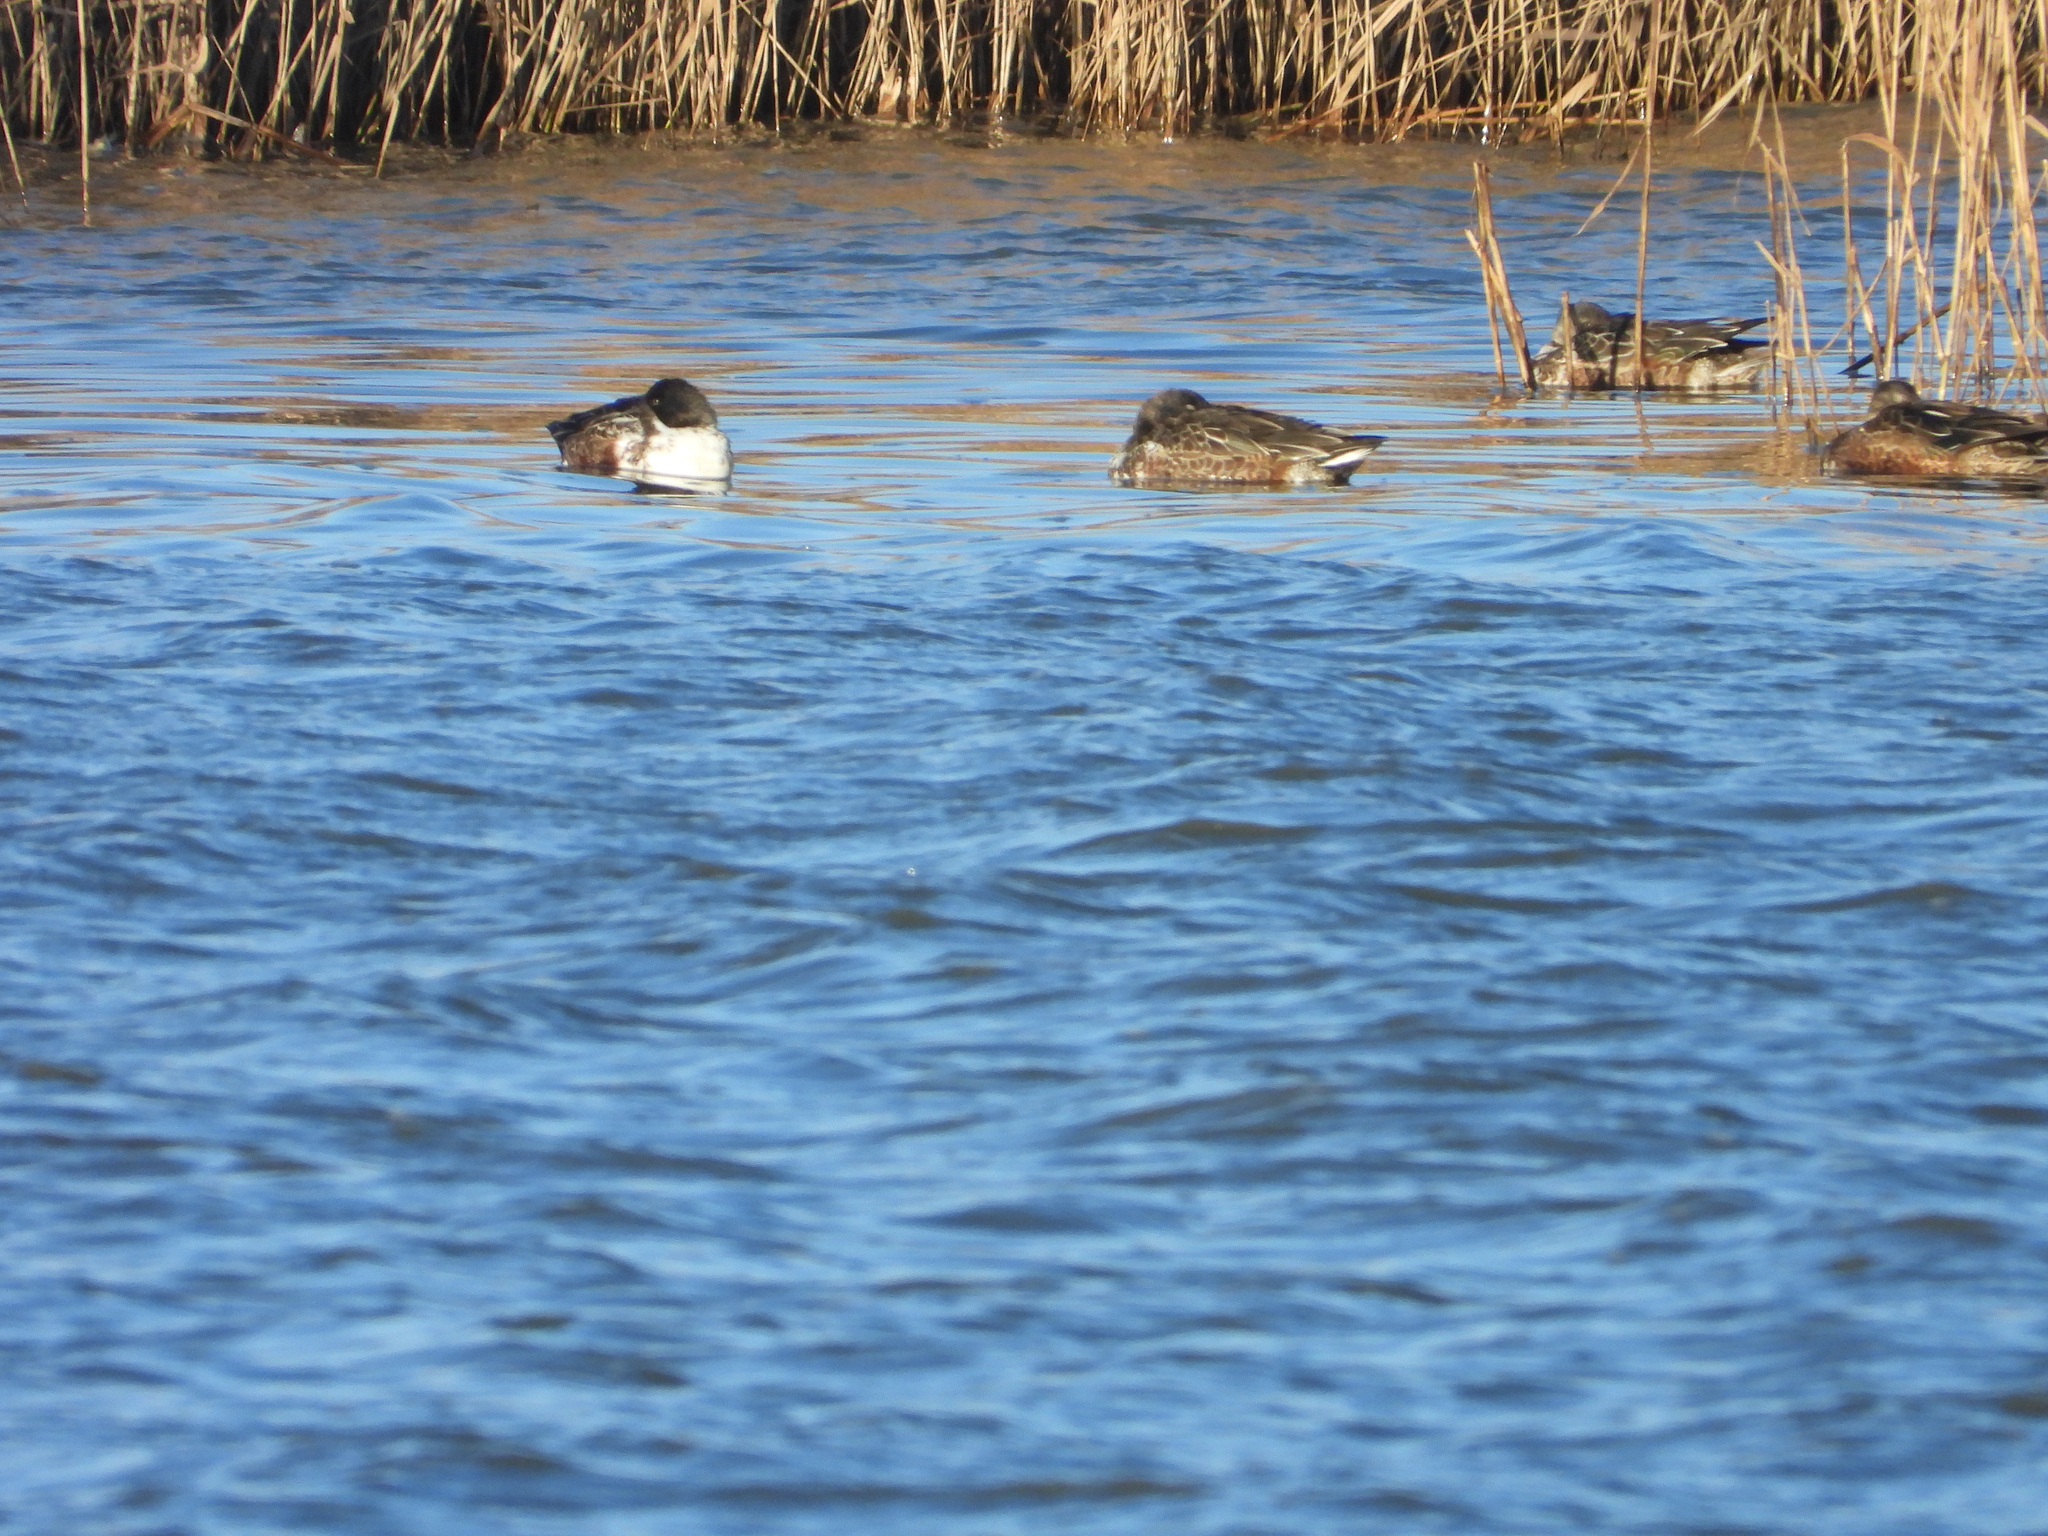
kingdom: Animalia
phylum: Chordata
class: Aves
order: Anseriformes
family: Anatidae
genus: Spatula
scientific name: Spatula clypeata
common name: Northern shoveler
